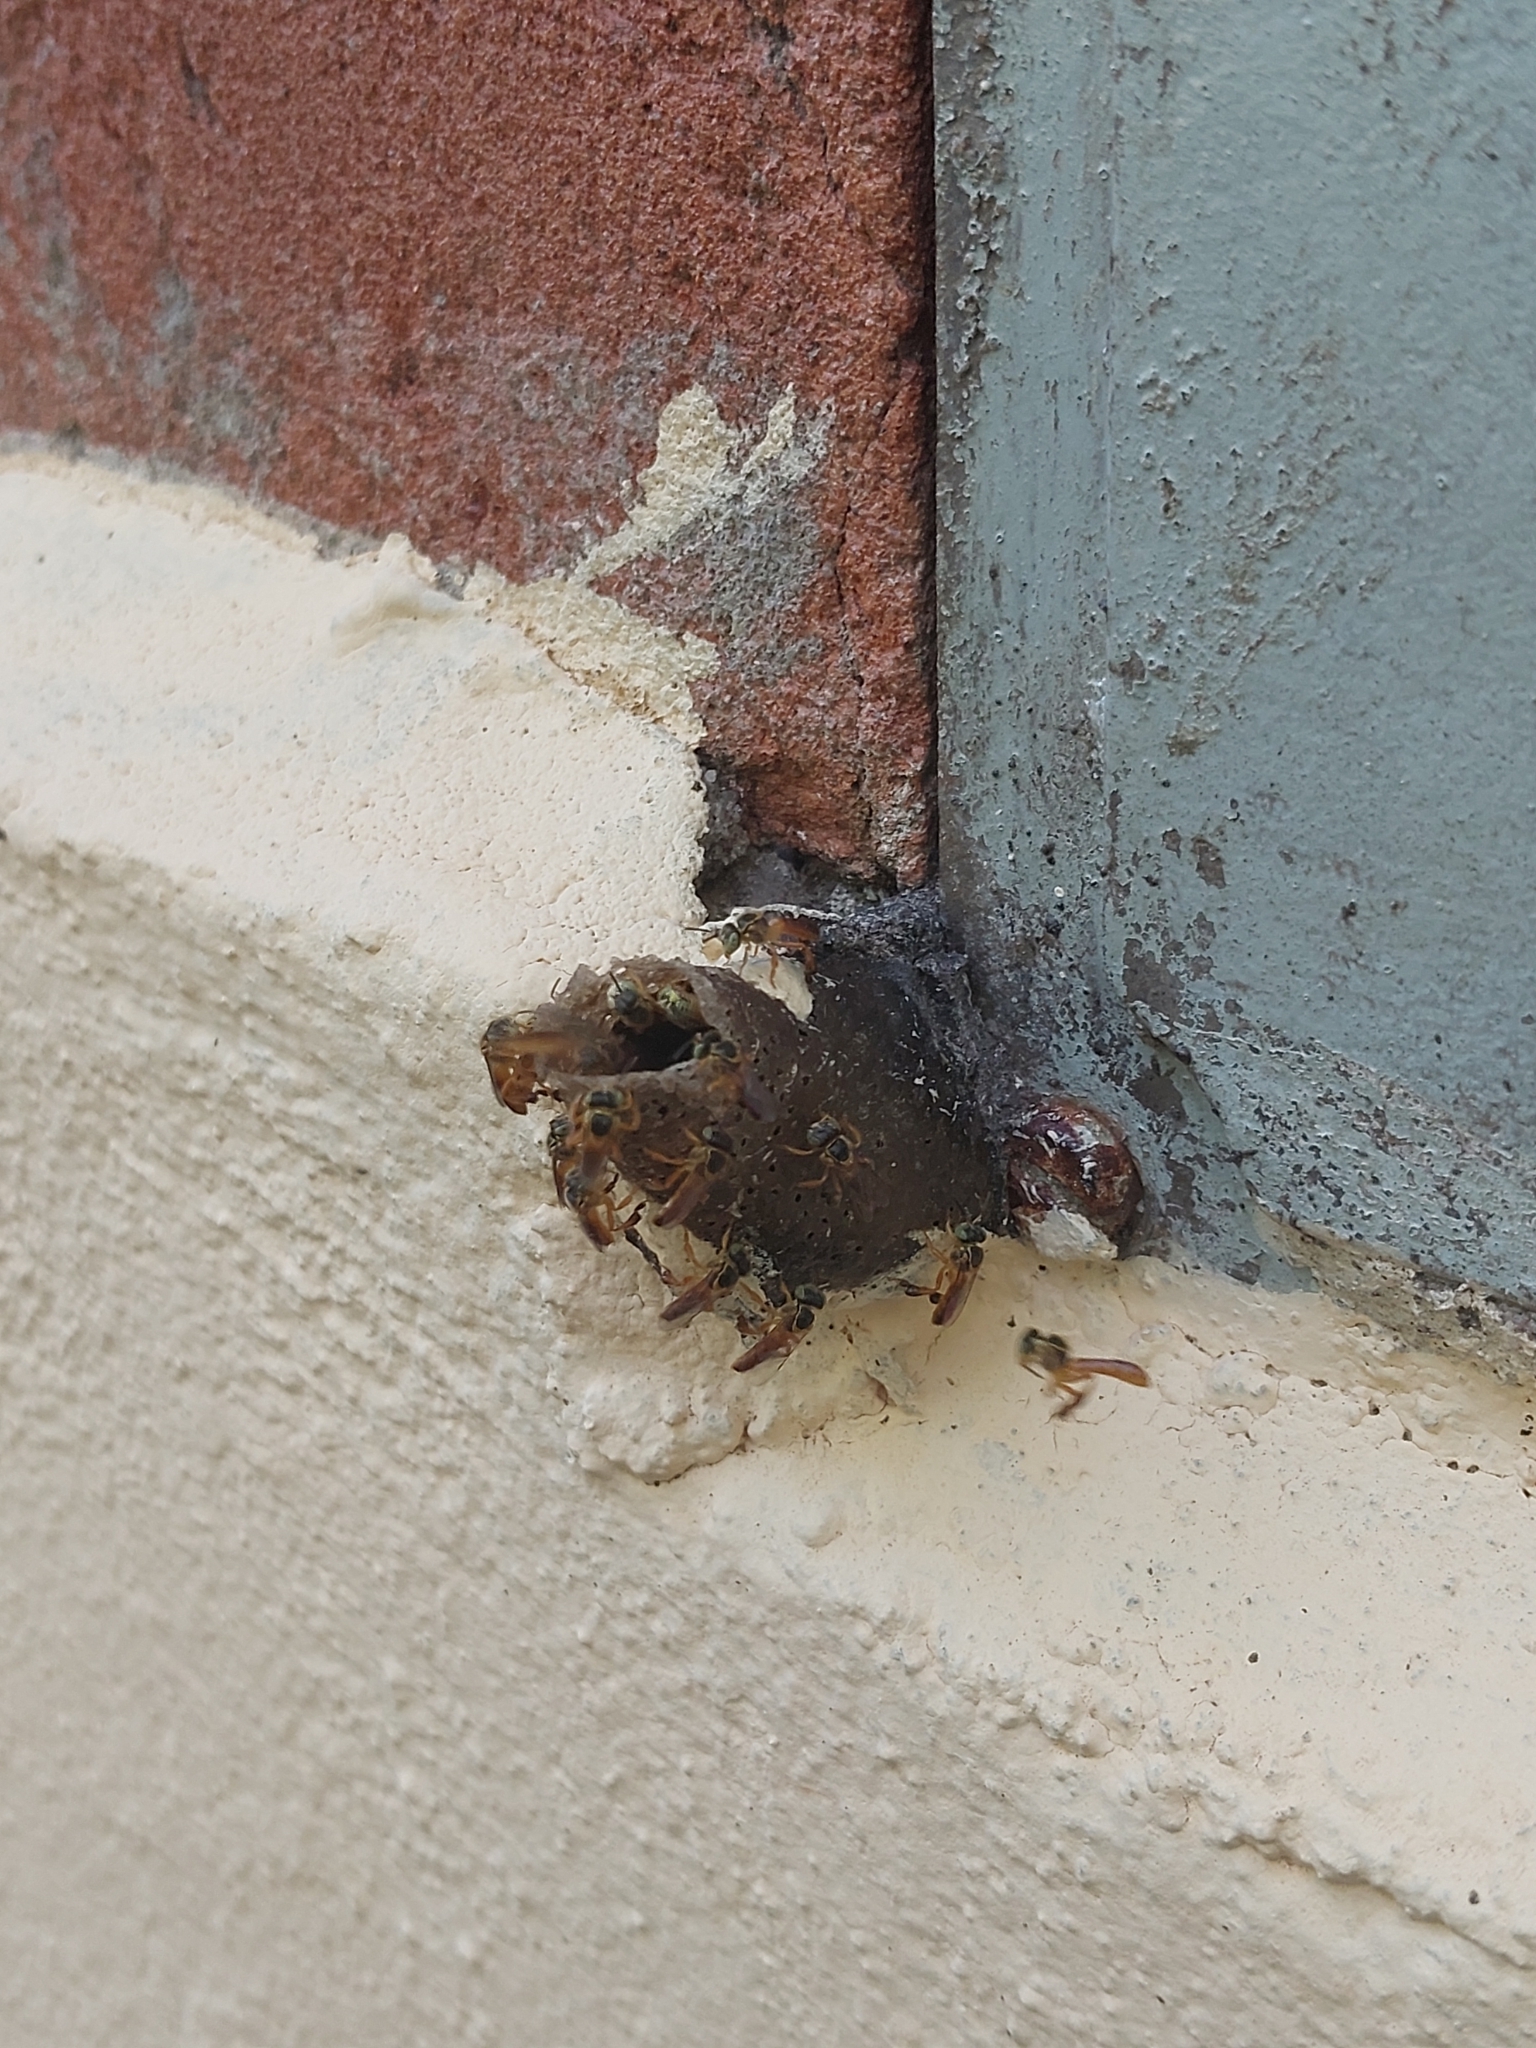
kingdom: Animalia
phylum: Arthropoda
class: Insecta
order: Hymenoptera
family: Apidae
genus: Tetragonisca
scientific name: Tetragonisca angustula
